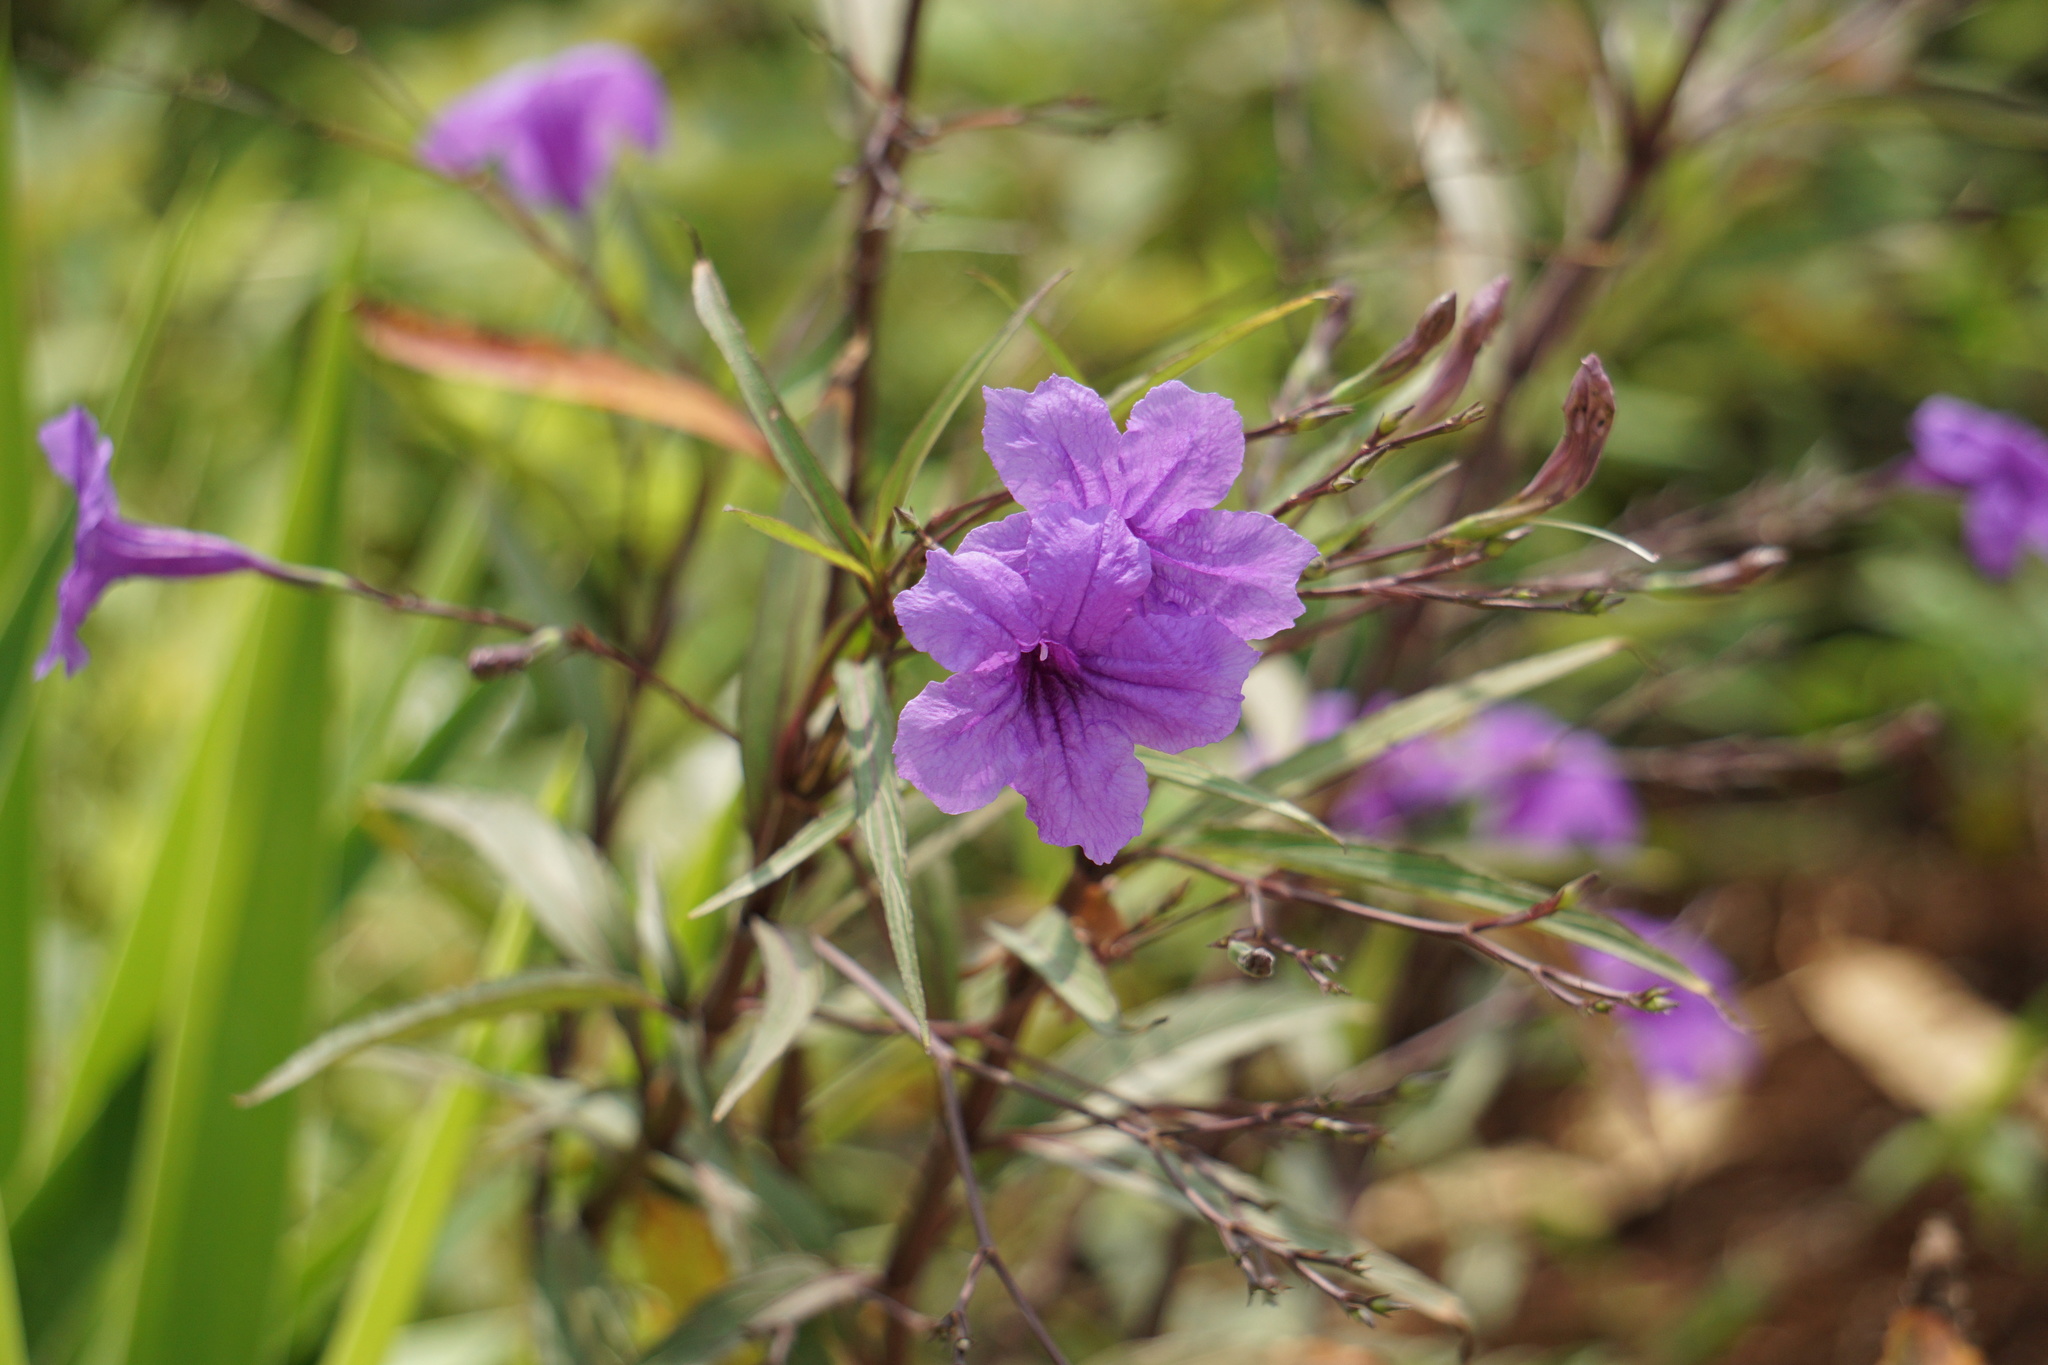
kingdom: Plantae
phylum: Tracheophyta
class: Magnoliopsida
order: Lamiales
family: Acanthaceae
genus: Ruellia
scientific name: Ruellia simplex
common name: Softseed wild petunia
